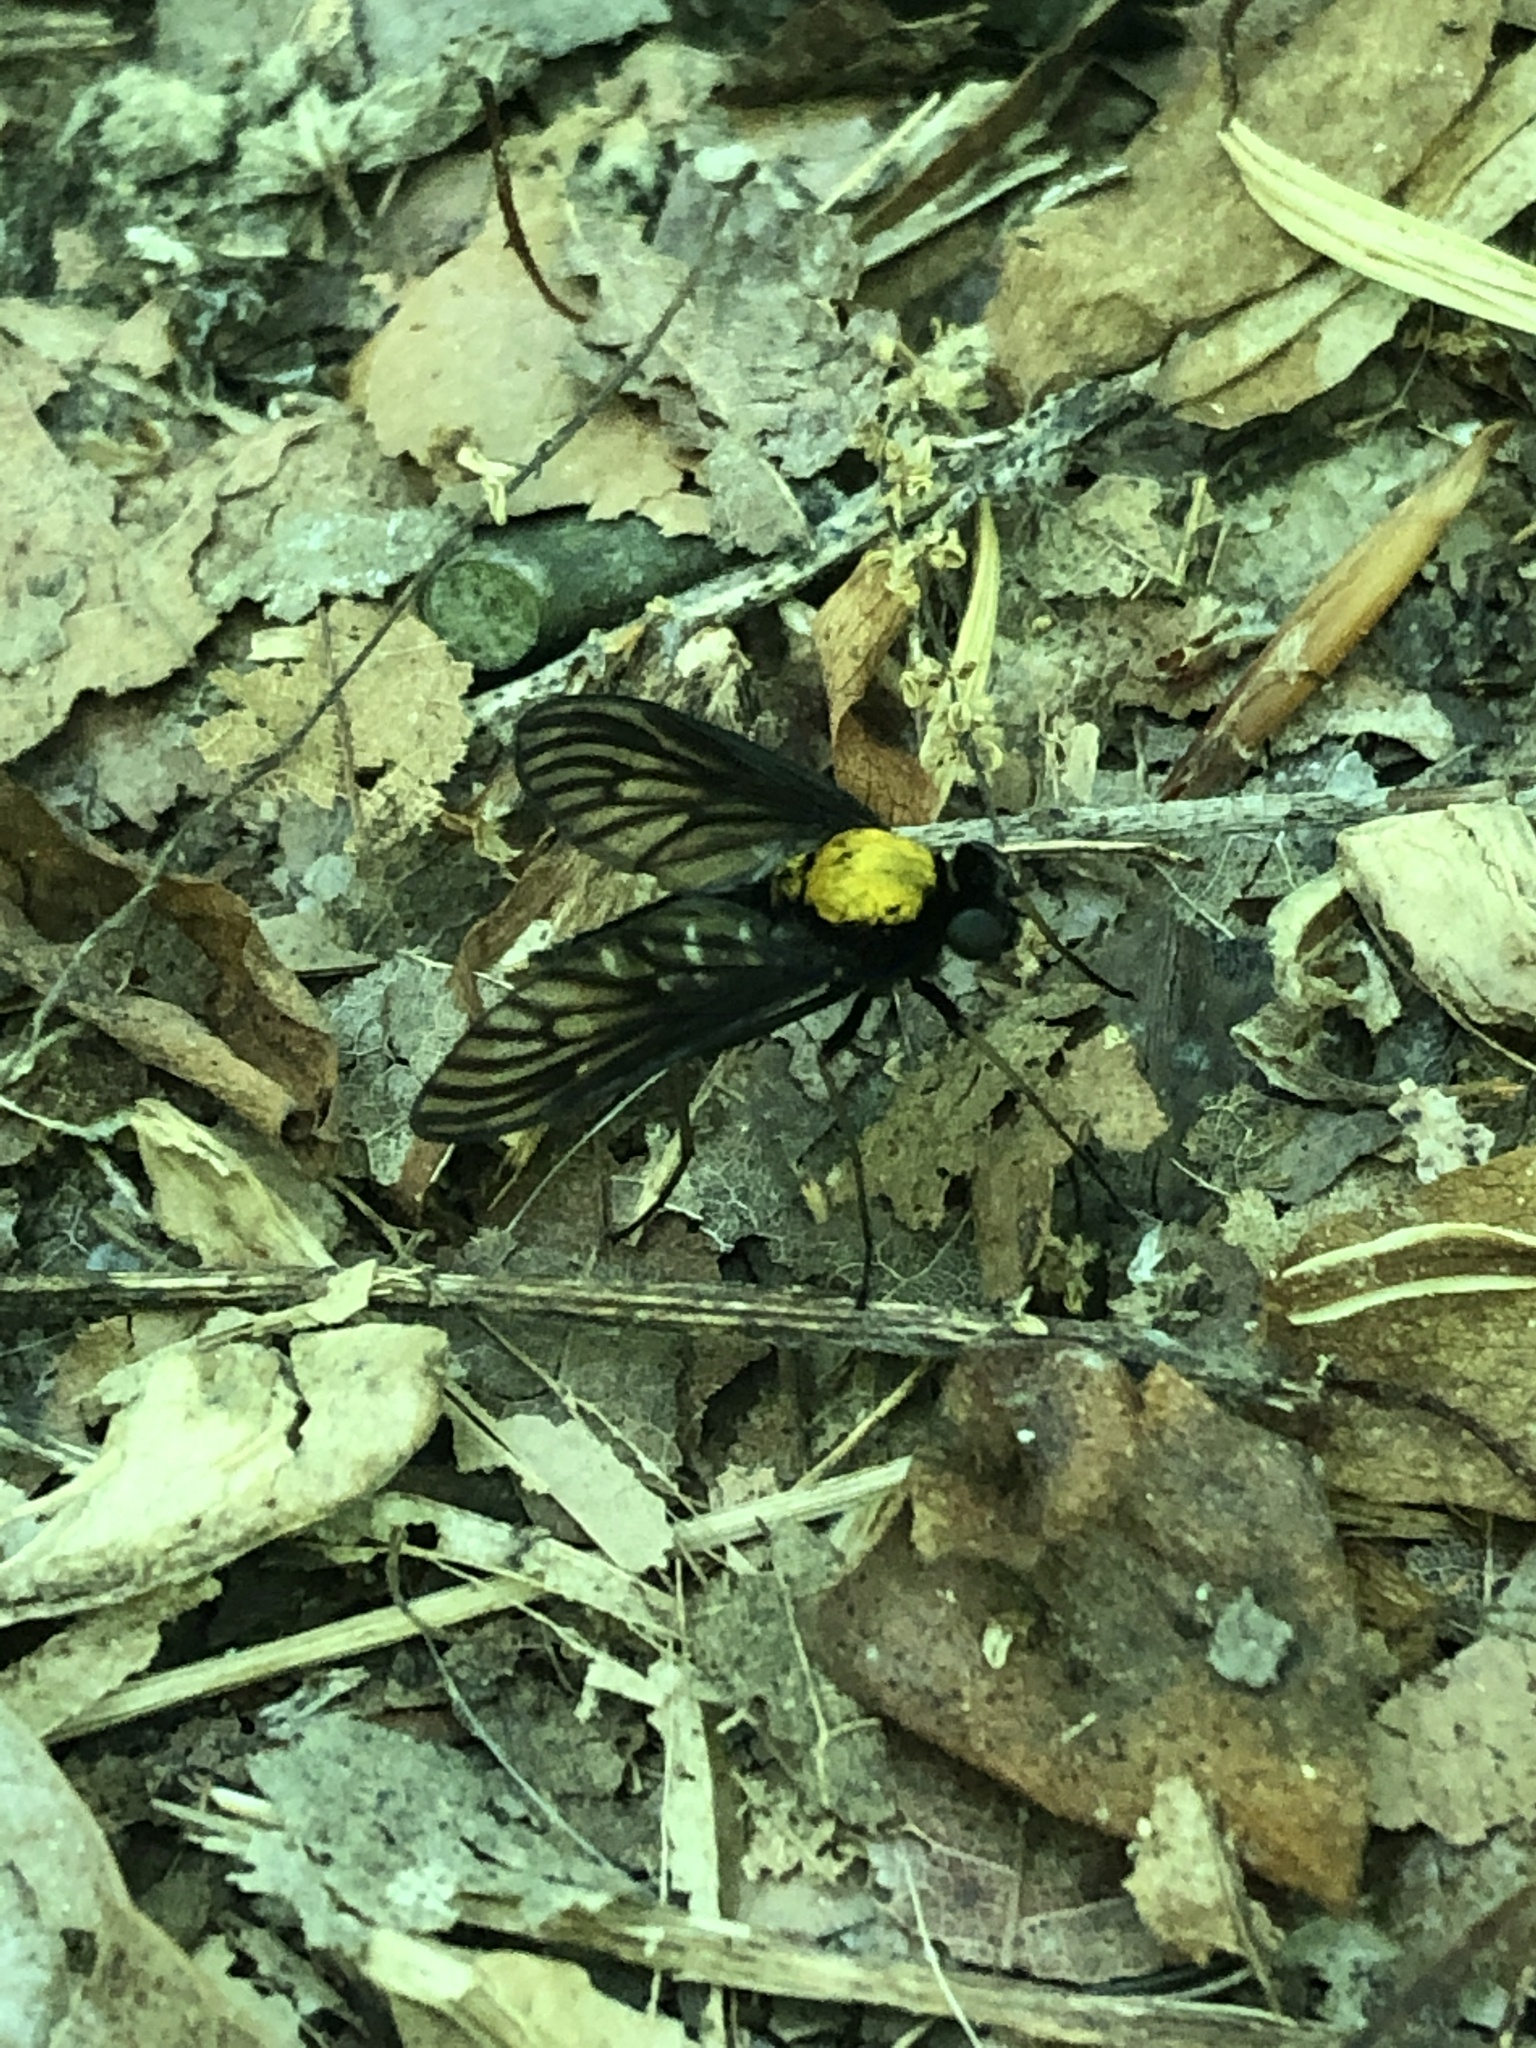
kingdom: Animalia
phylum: Arthropoda
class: Insecta
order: Diptera
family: Rhagionidae
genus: Chrysopilus
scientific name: Chrysopilus thoracicus
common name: Golden-backed snipe fly
